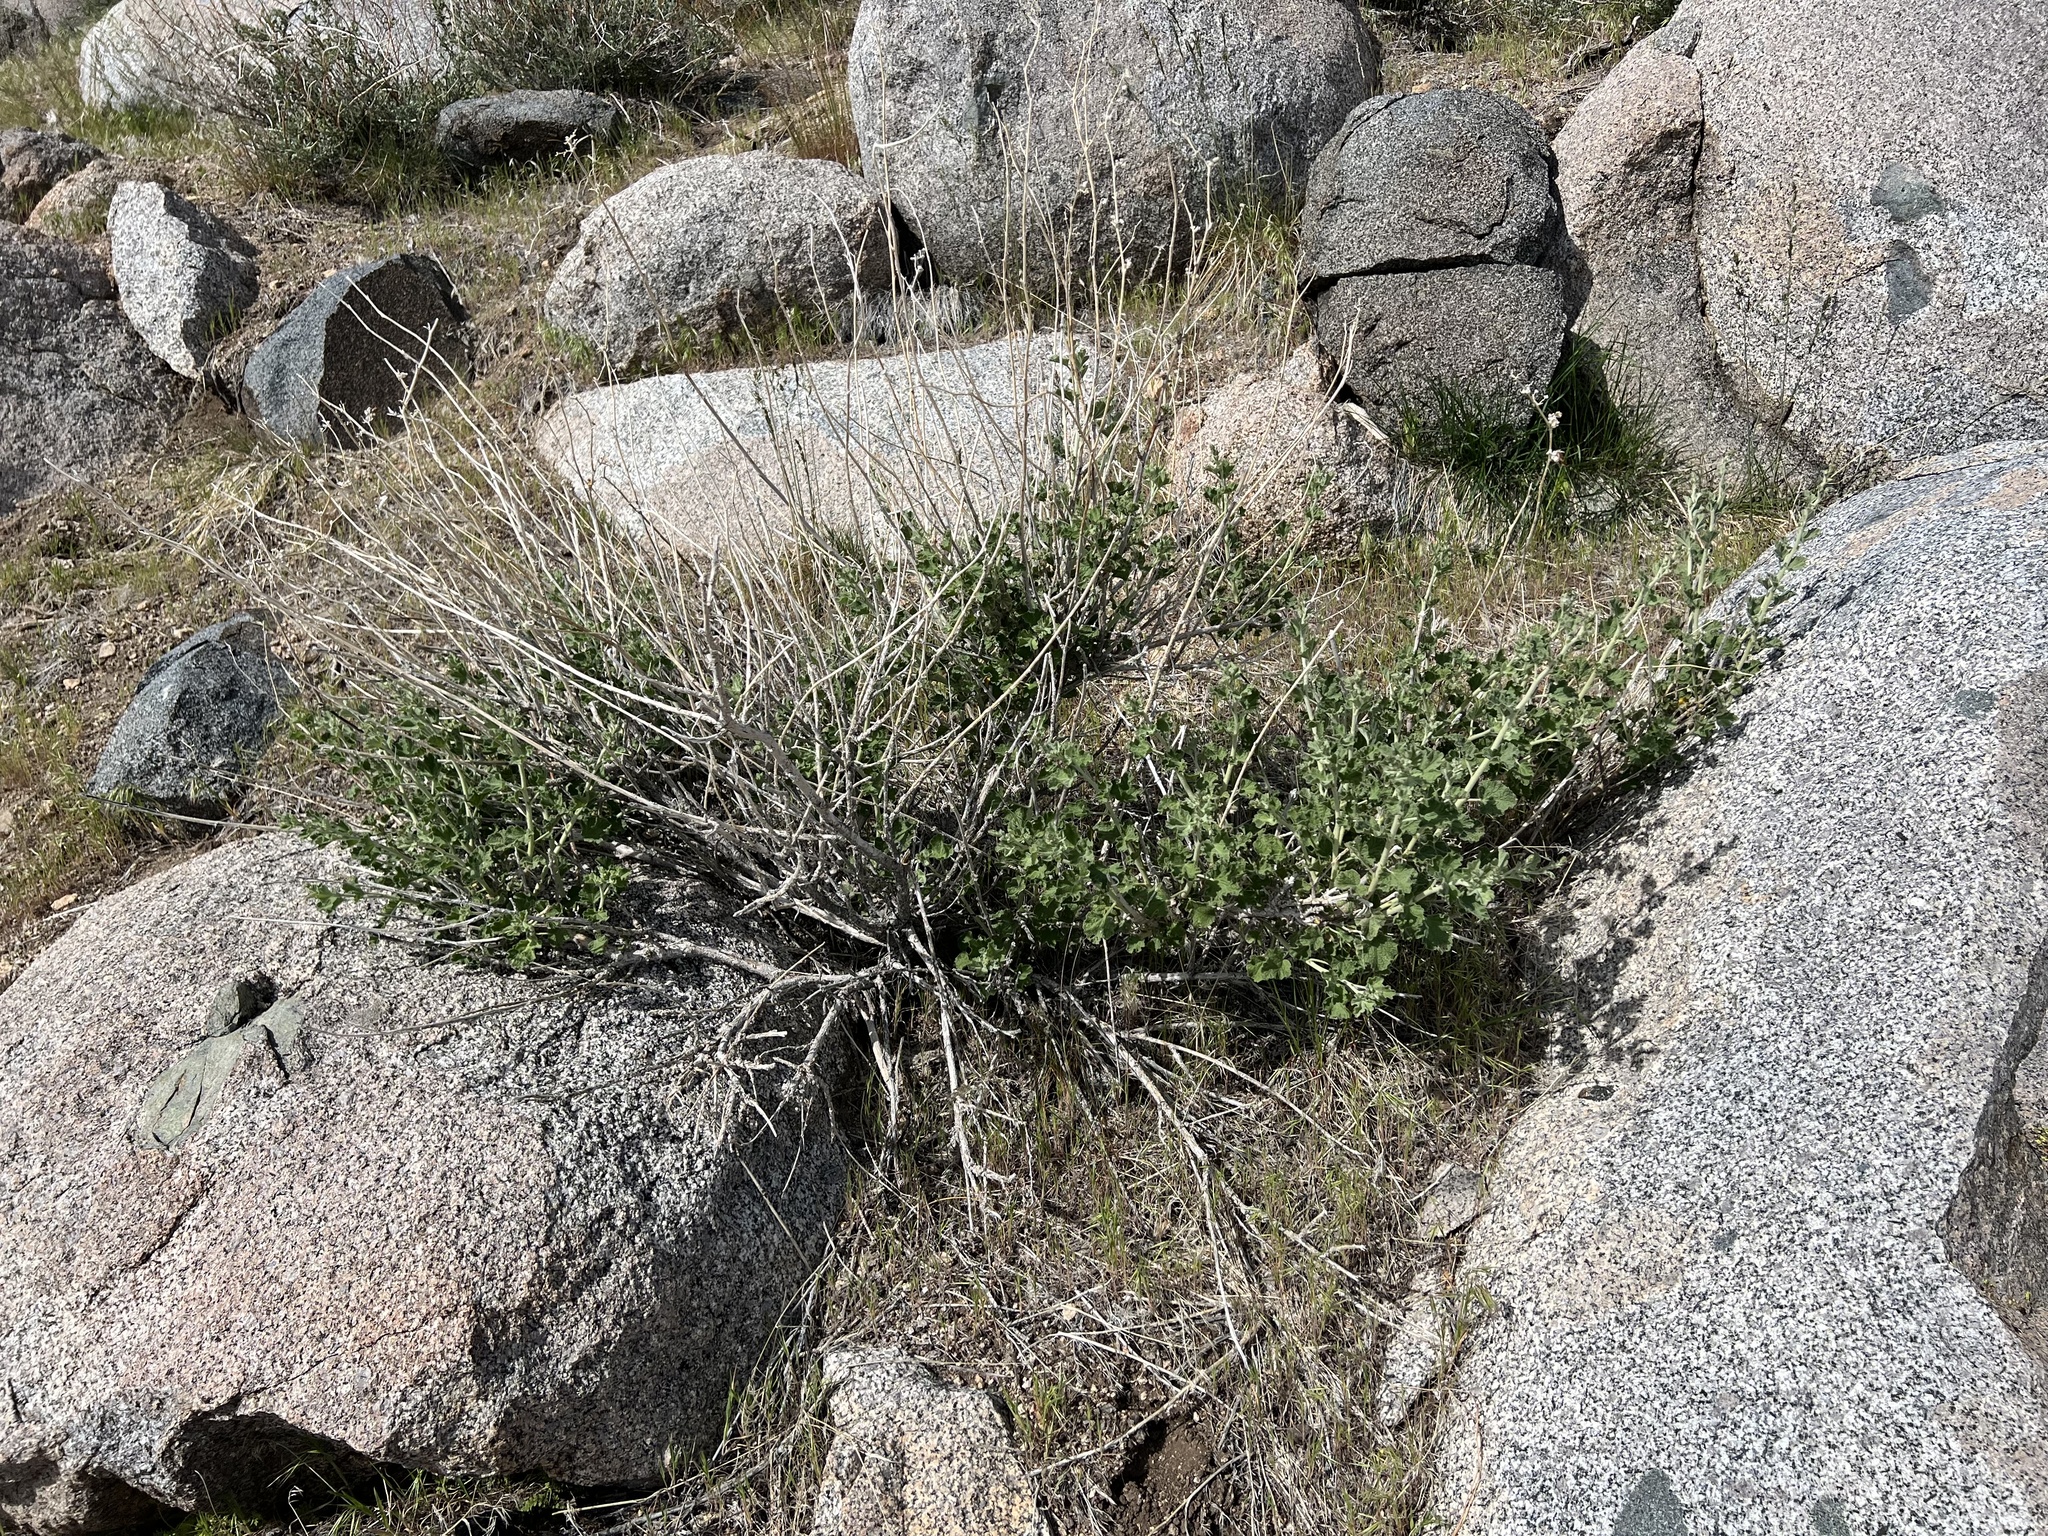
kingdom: Plantae
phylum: Tracheophyta
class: Magnoliopsida
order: Malvales
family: Malvaceae
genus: Malacothamnus
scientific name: Malacothamnus fremontii
